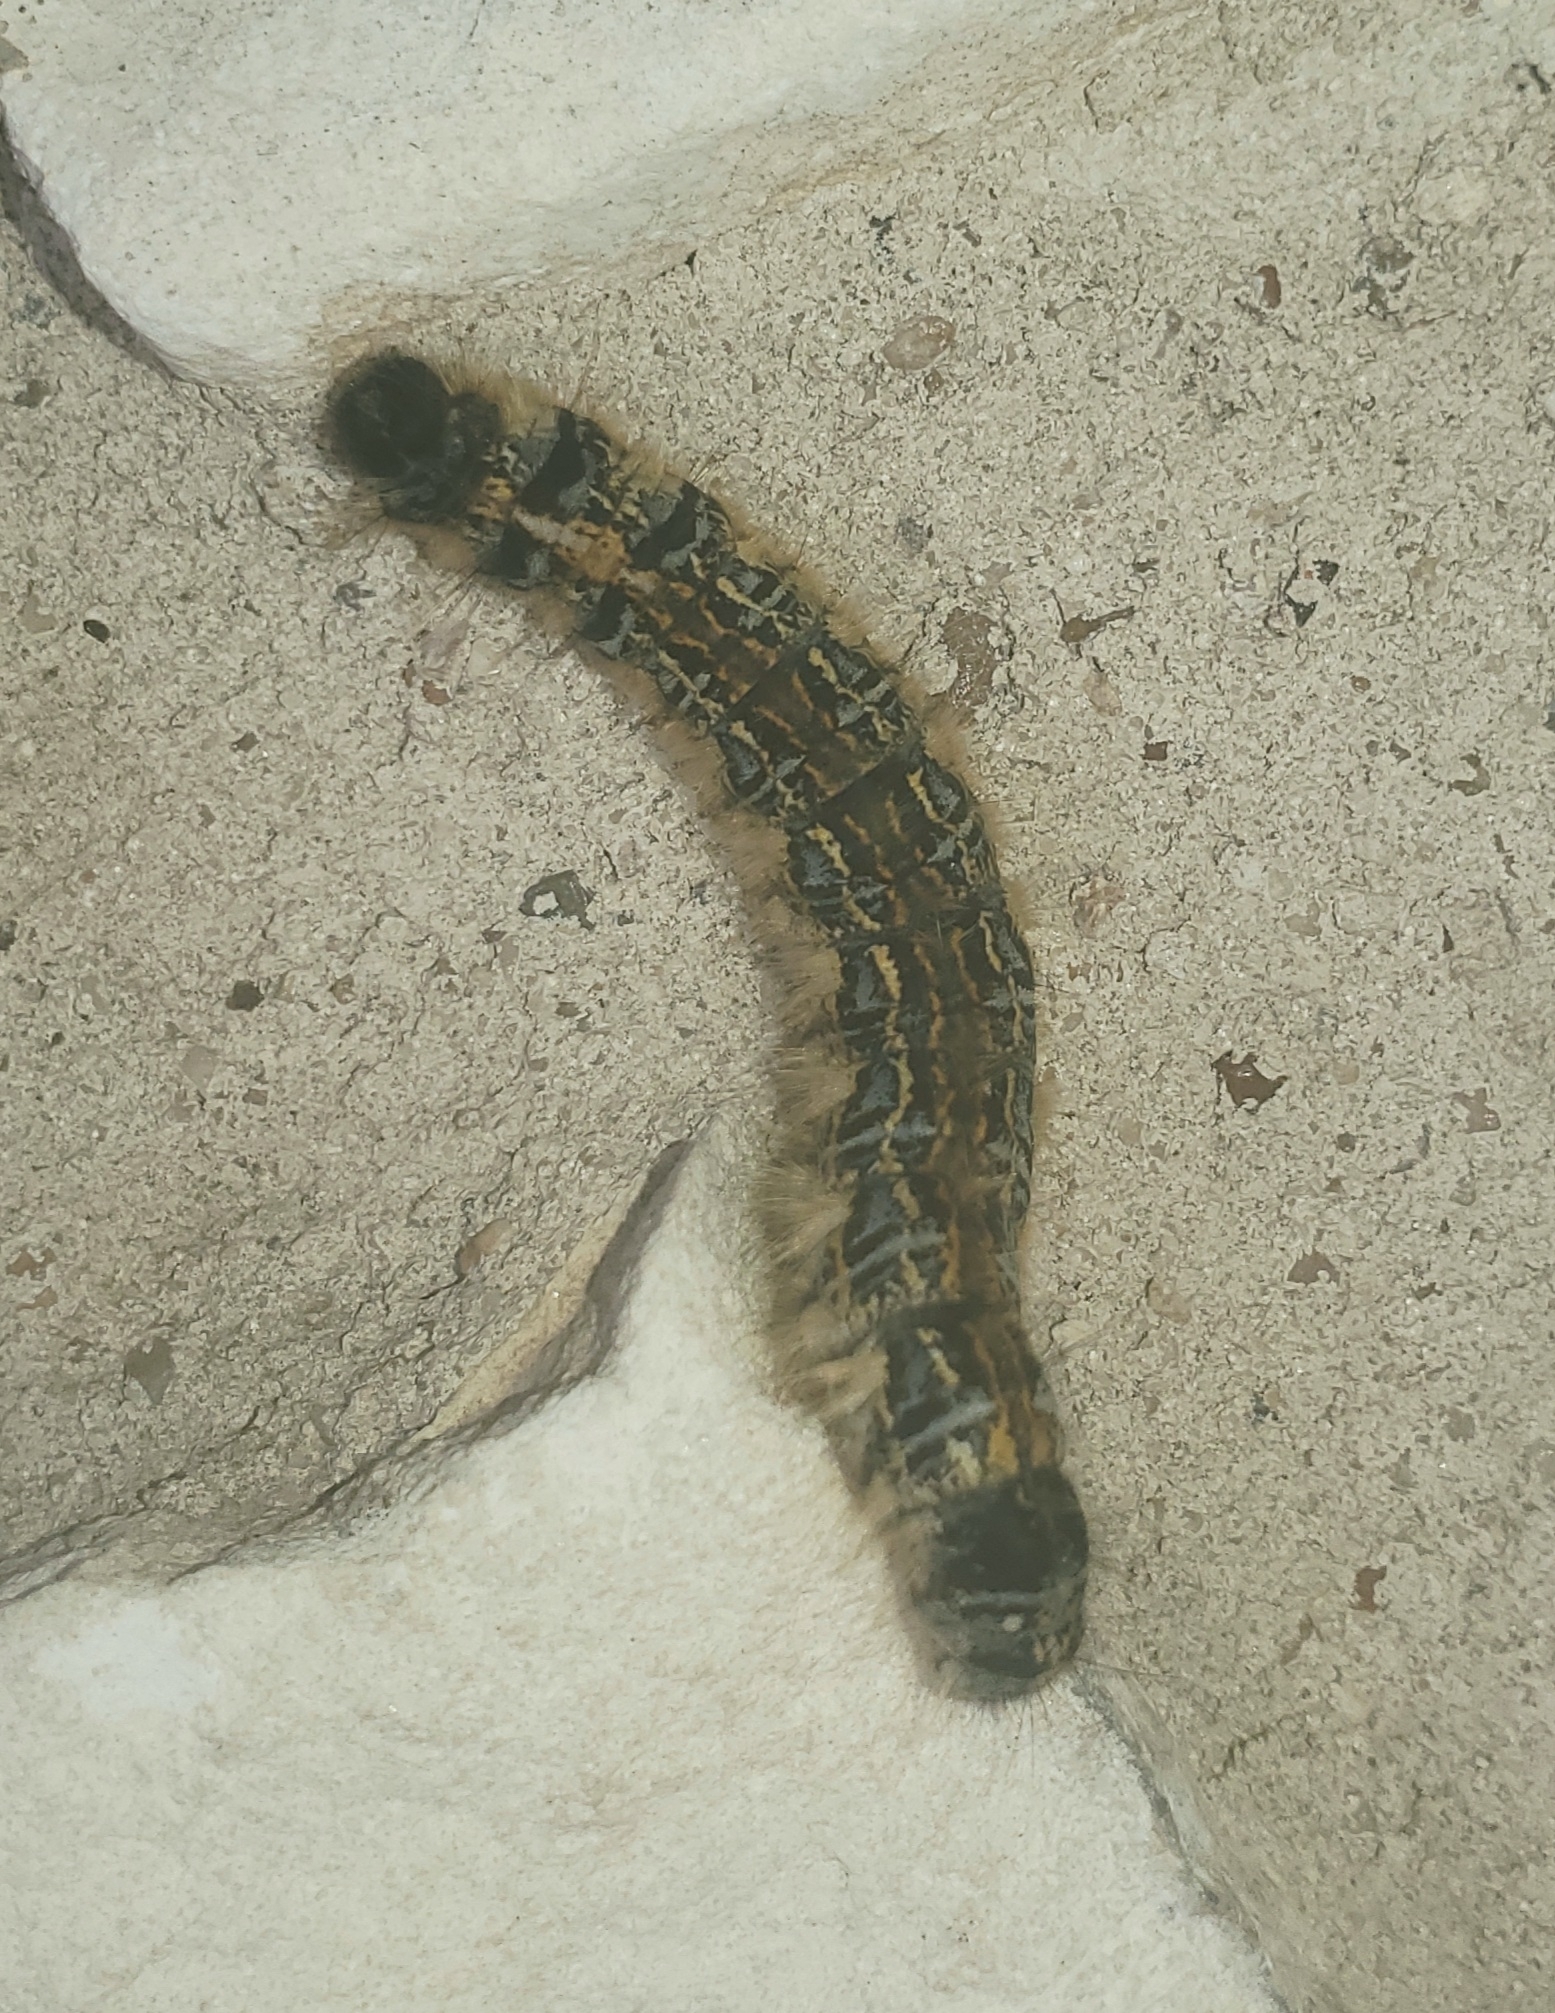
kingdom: Animalia
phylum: Arthropoda
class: Insecta
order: Lepidoptera
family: Lasiocampidae
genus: Malacosoma
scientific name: Malacosoma tigris
